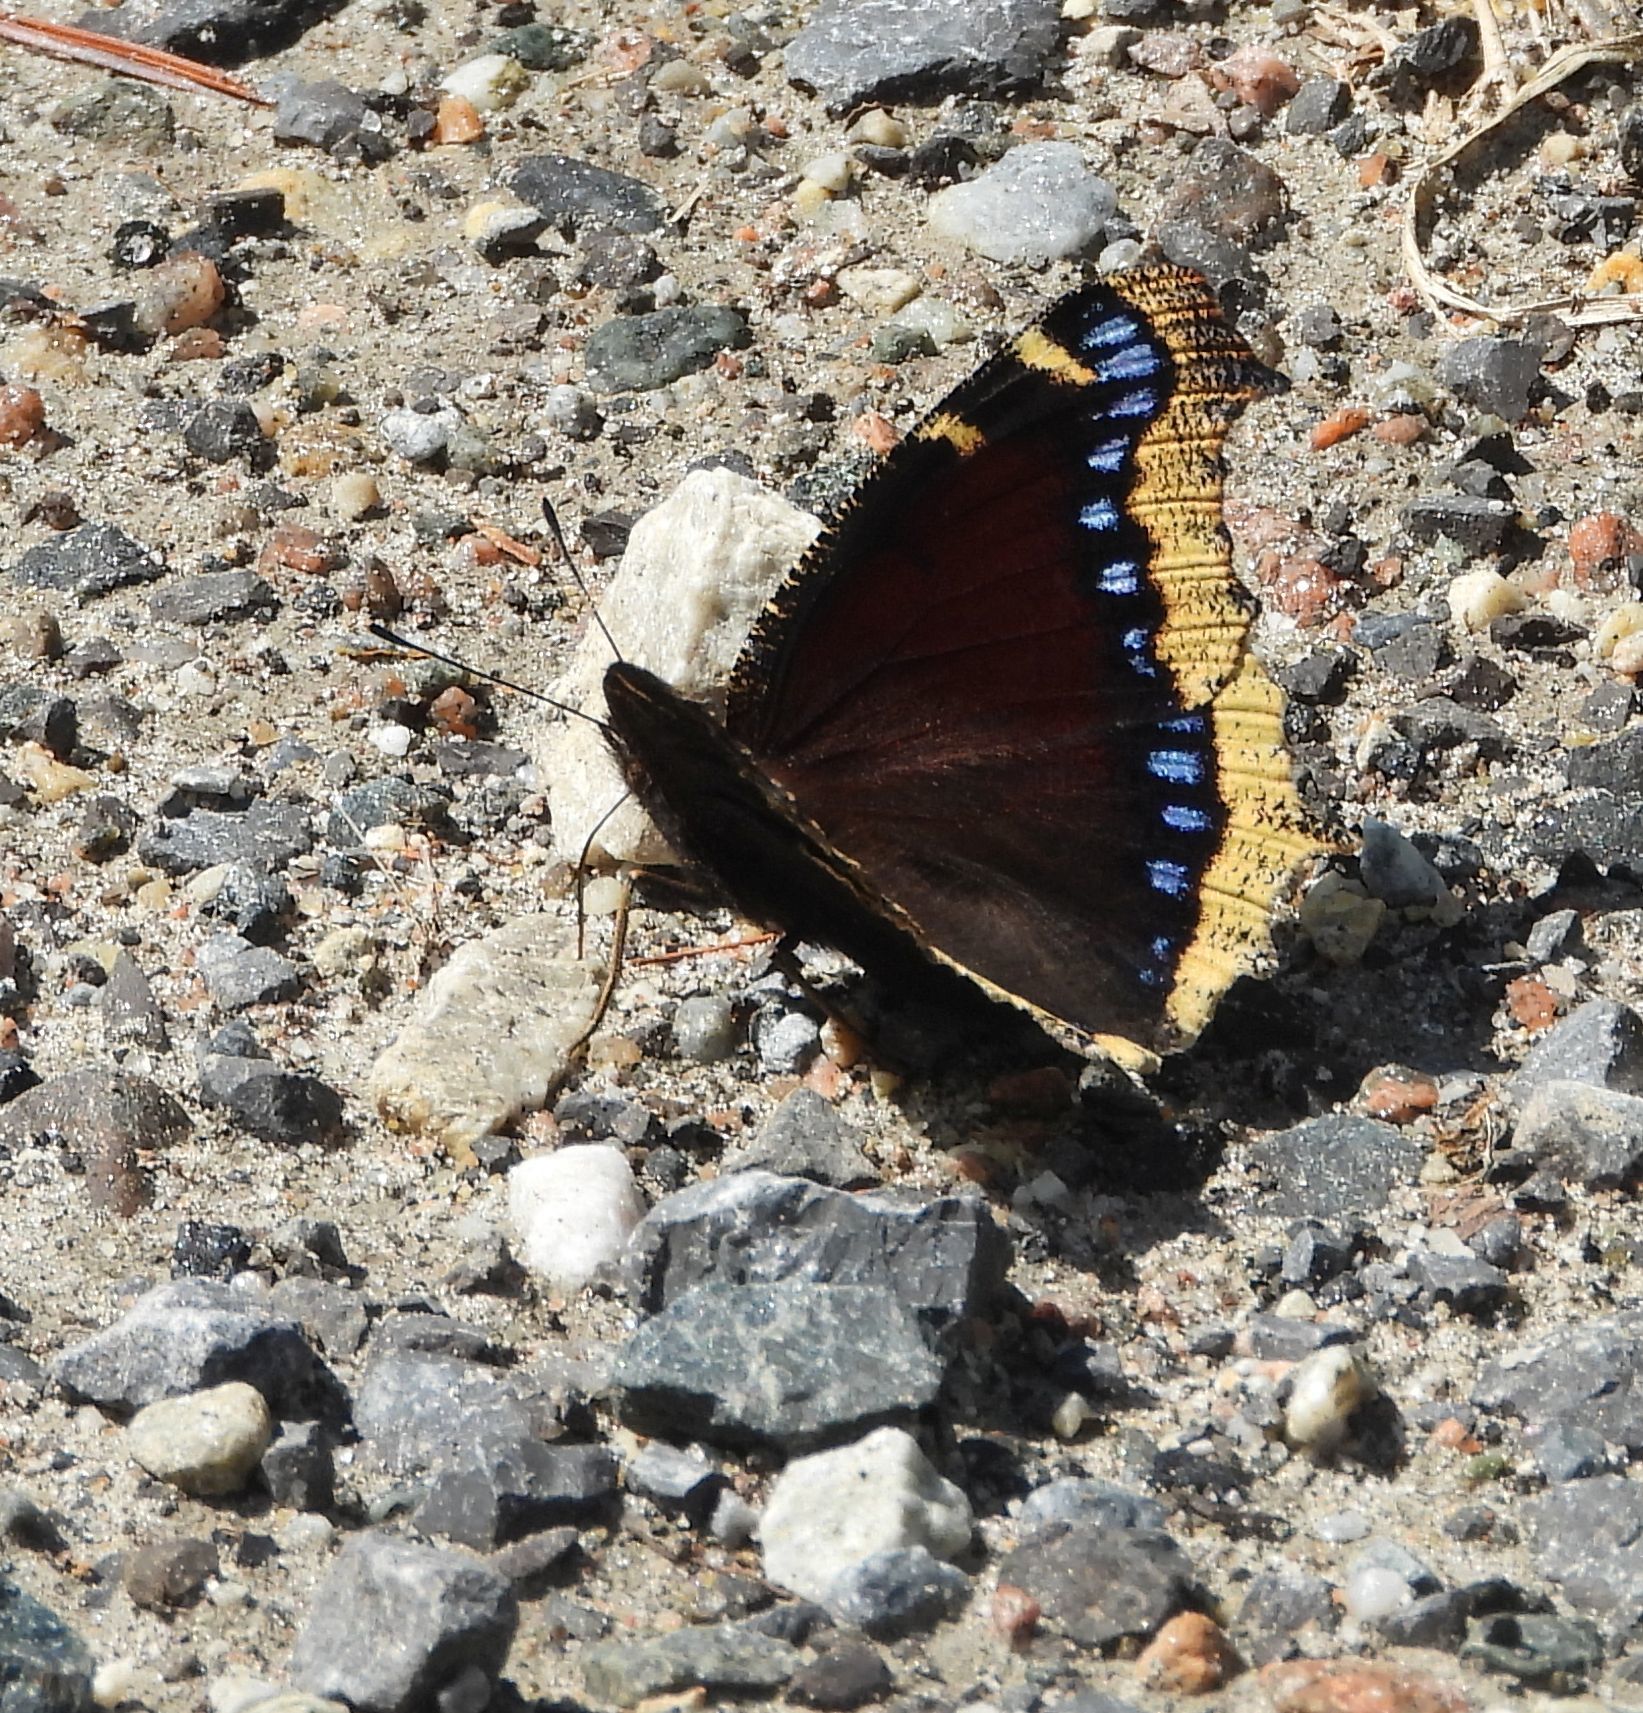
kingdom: Animalia
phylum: Arthropoda
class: Insecta
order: Lepidoptera
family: Nymphalidae
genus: Nymphalis
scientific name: Nymphalis antiopa
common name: Camberwell beauty
